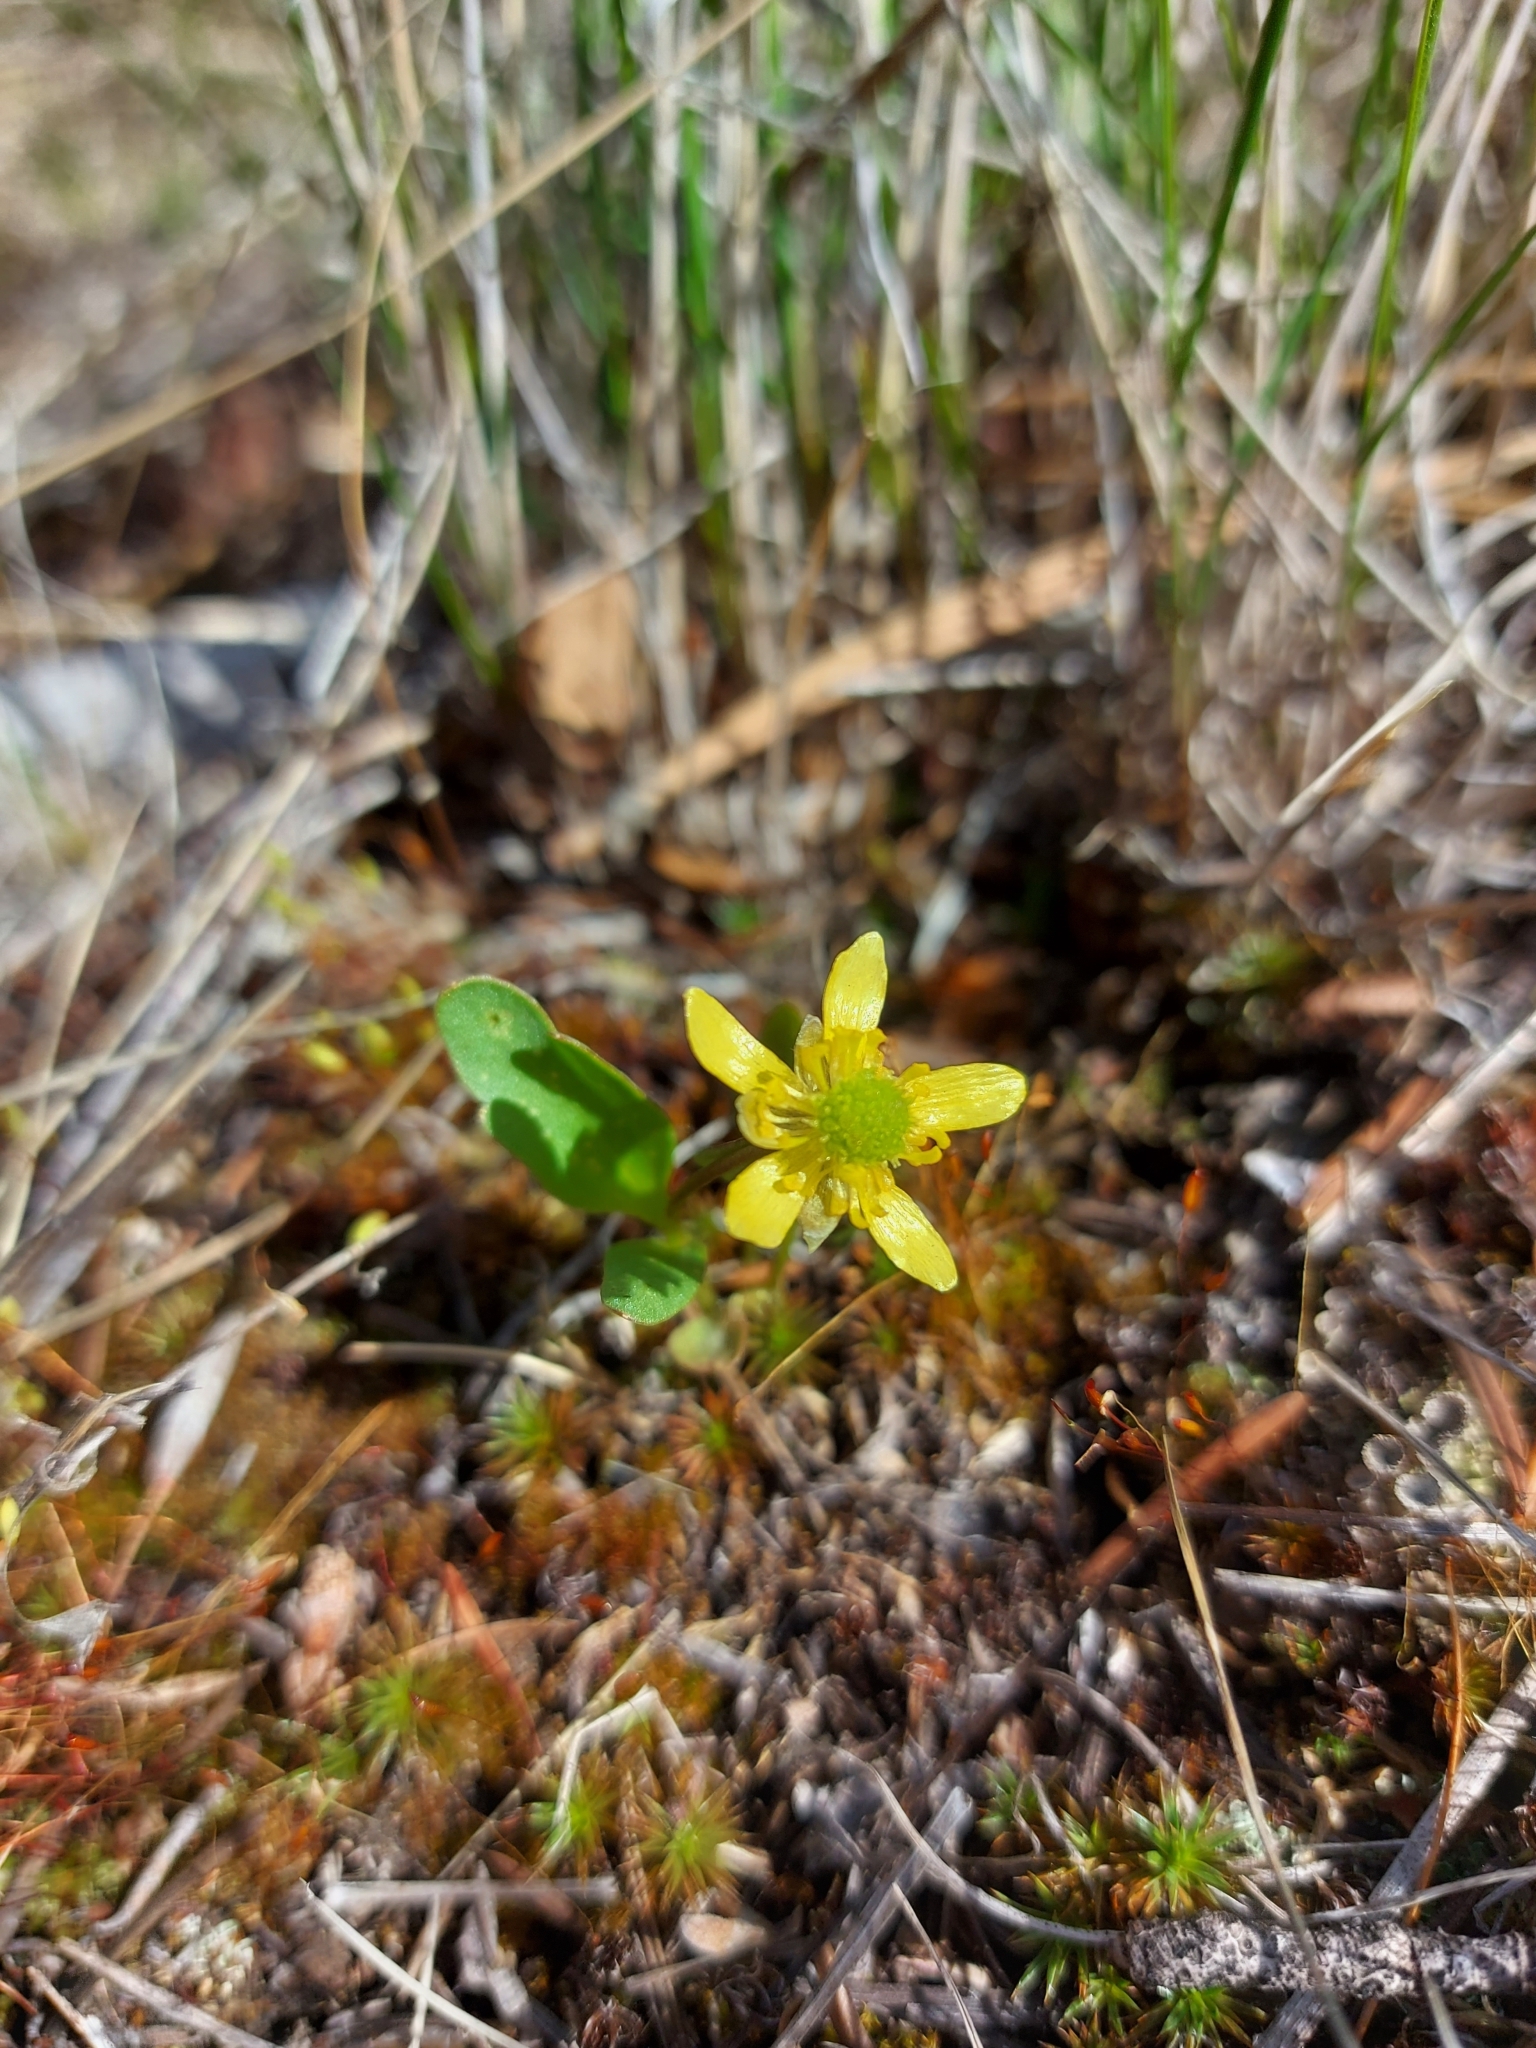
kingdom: Plantae
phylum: Tracheophyta
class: Magnoliopsida
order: Ranunculales
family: Ranunculaceae
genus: Ranunculus
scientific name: Ranunculus glaberrimus
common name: Sagebrush buttercup
